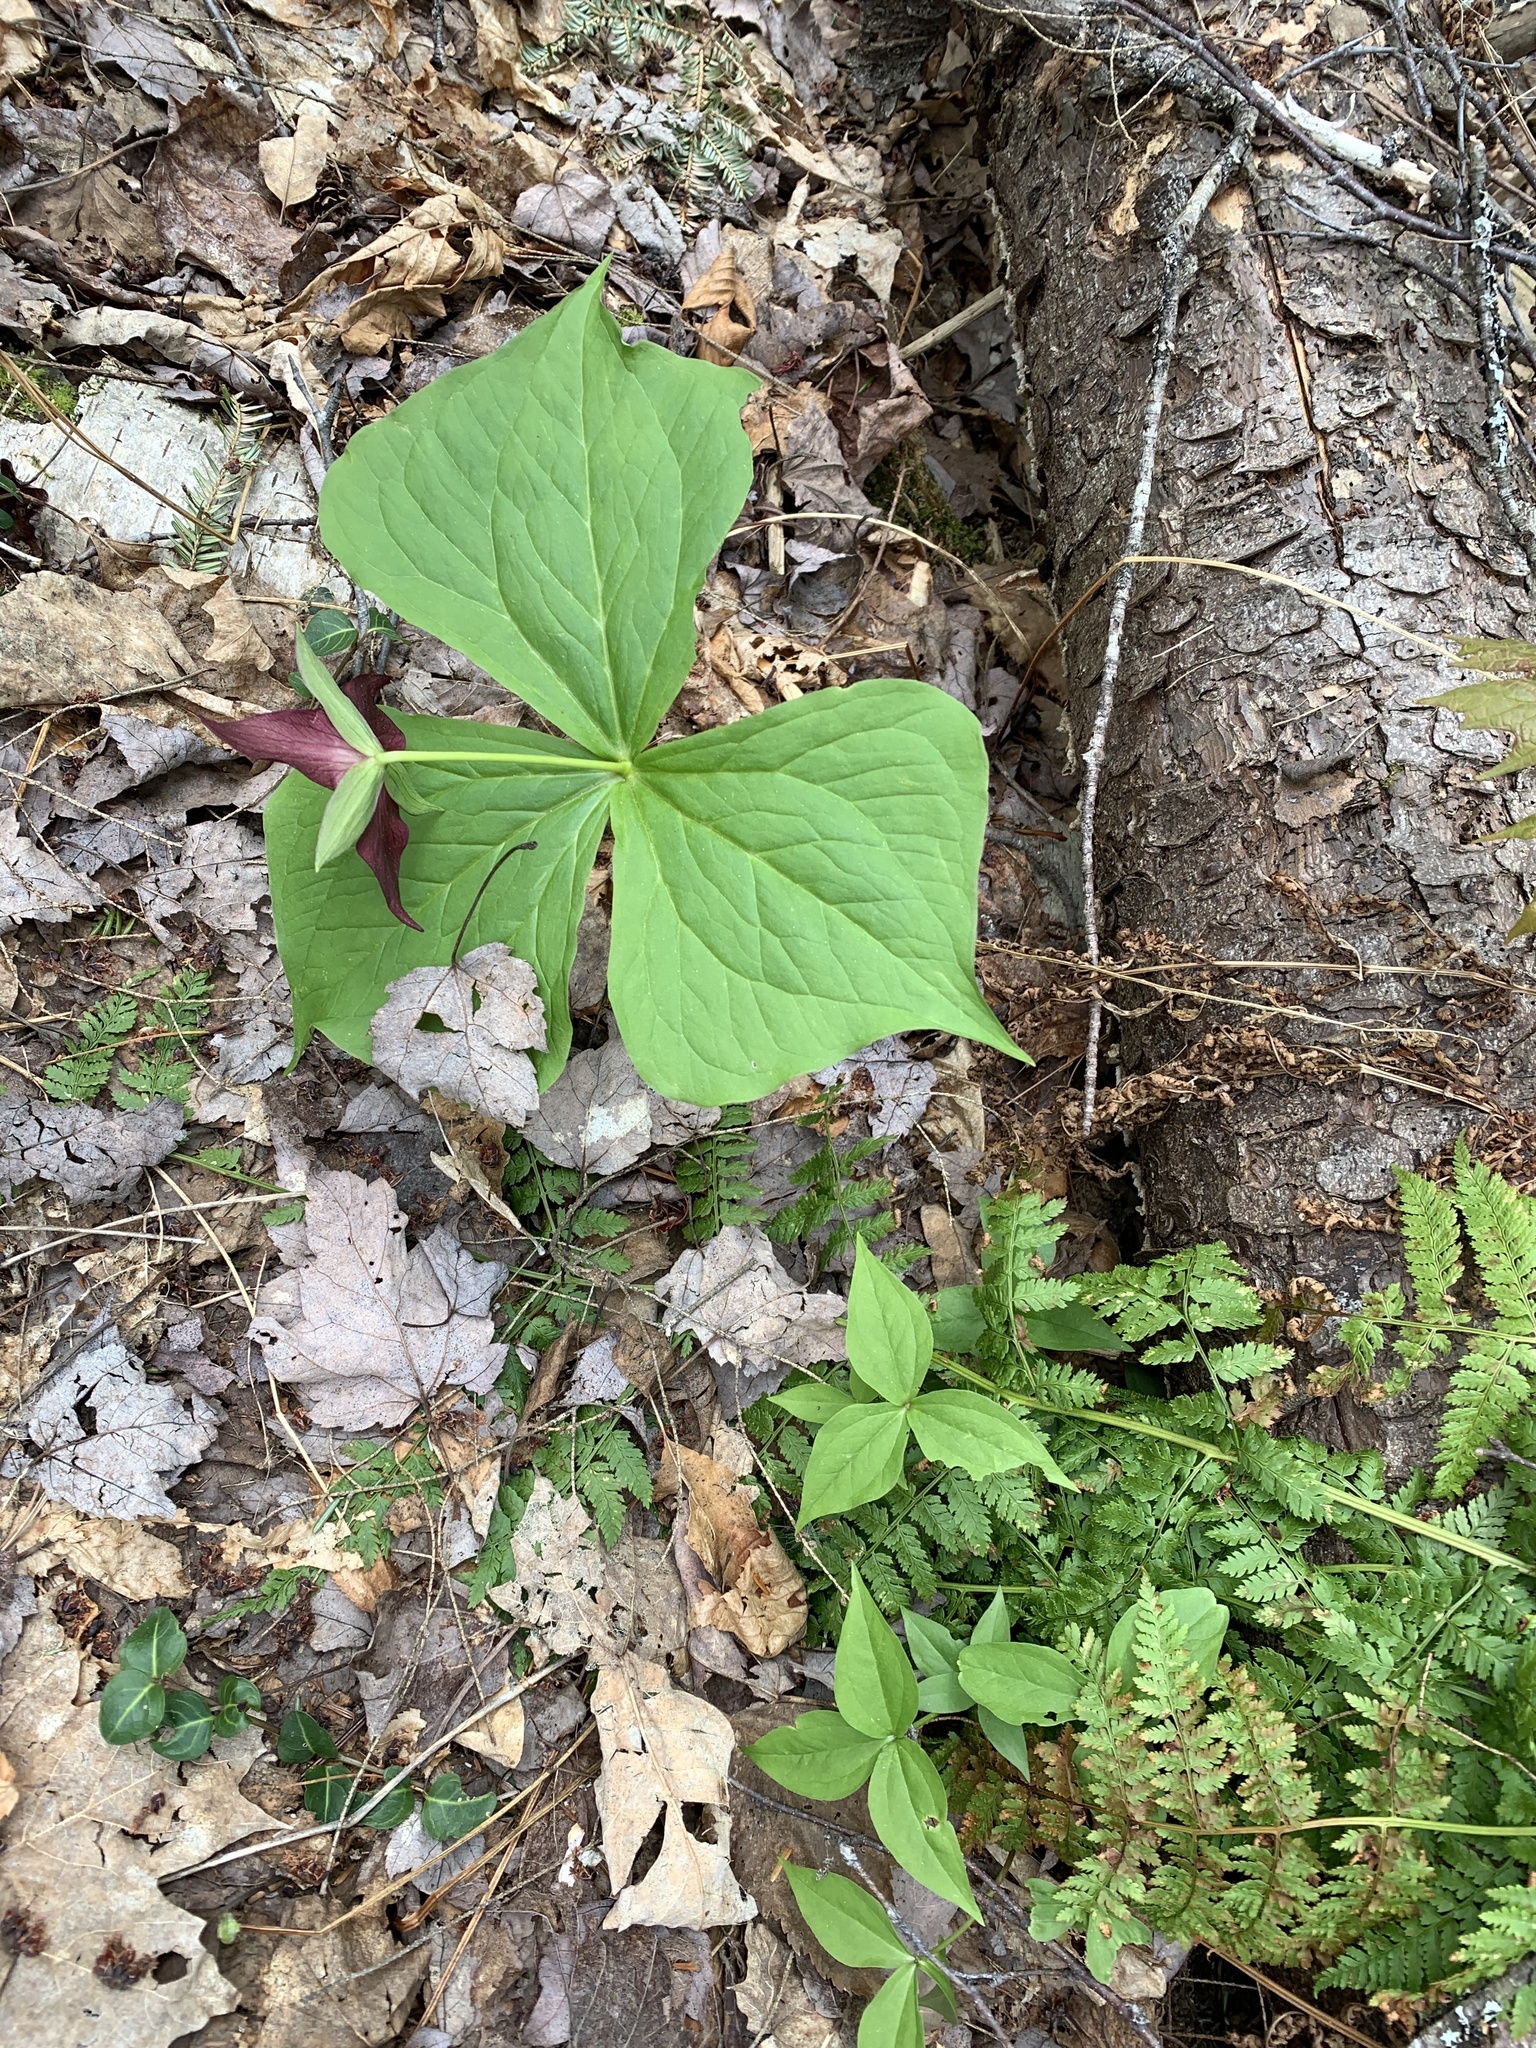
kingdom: Plantae
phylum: Tracheophyta
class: Liliopsida
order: Liliales
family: Melanthiaceae
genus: Trillium
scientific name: Trillium erectum
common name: Purple trillium
